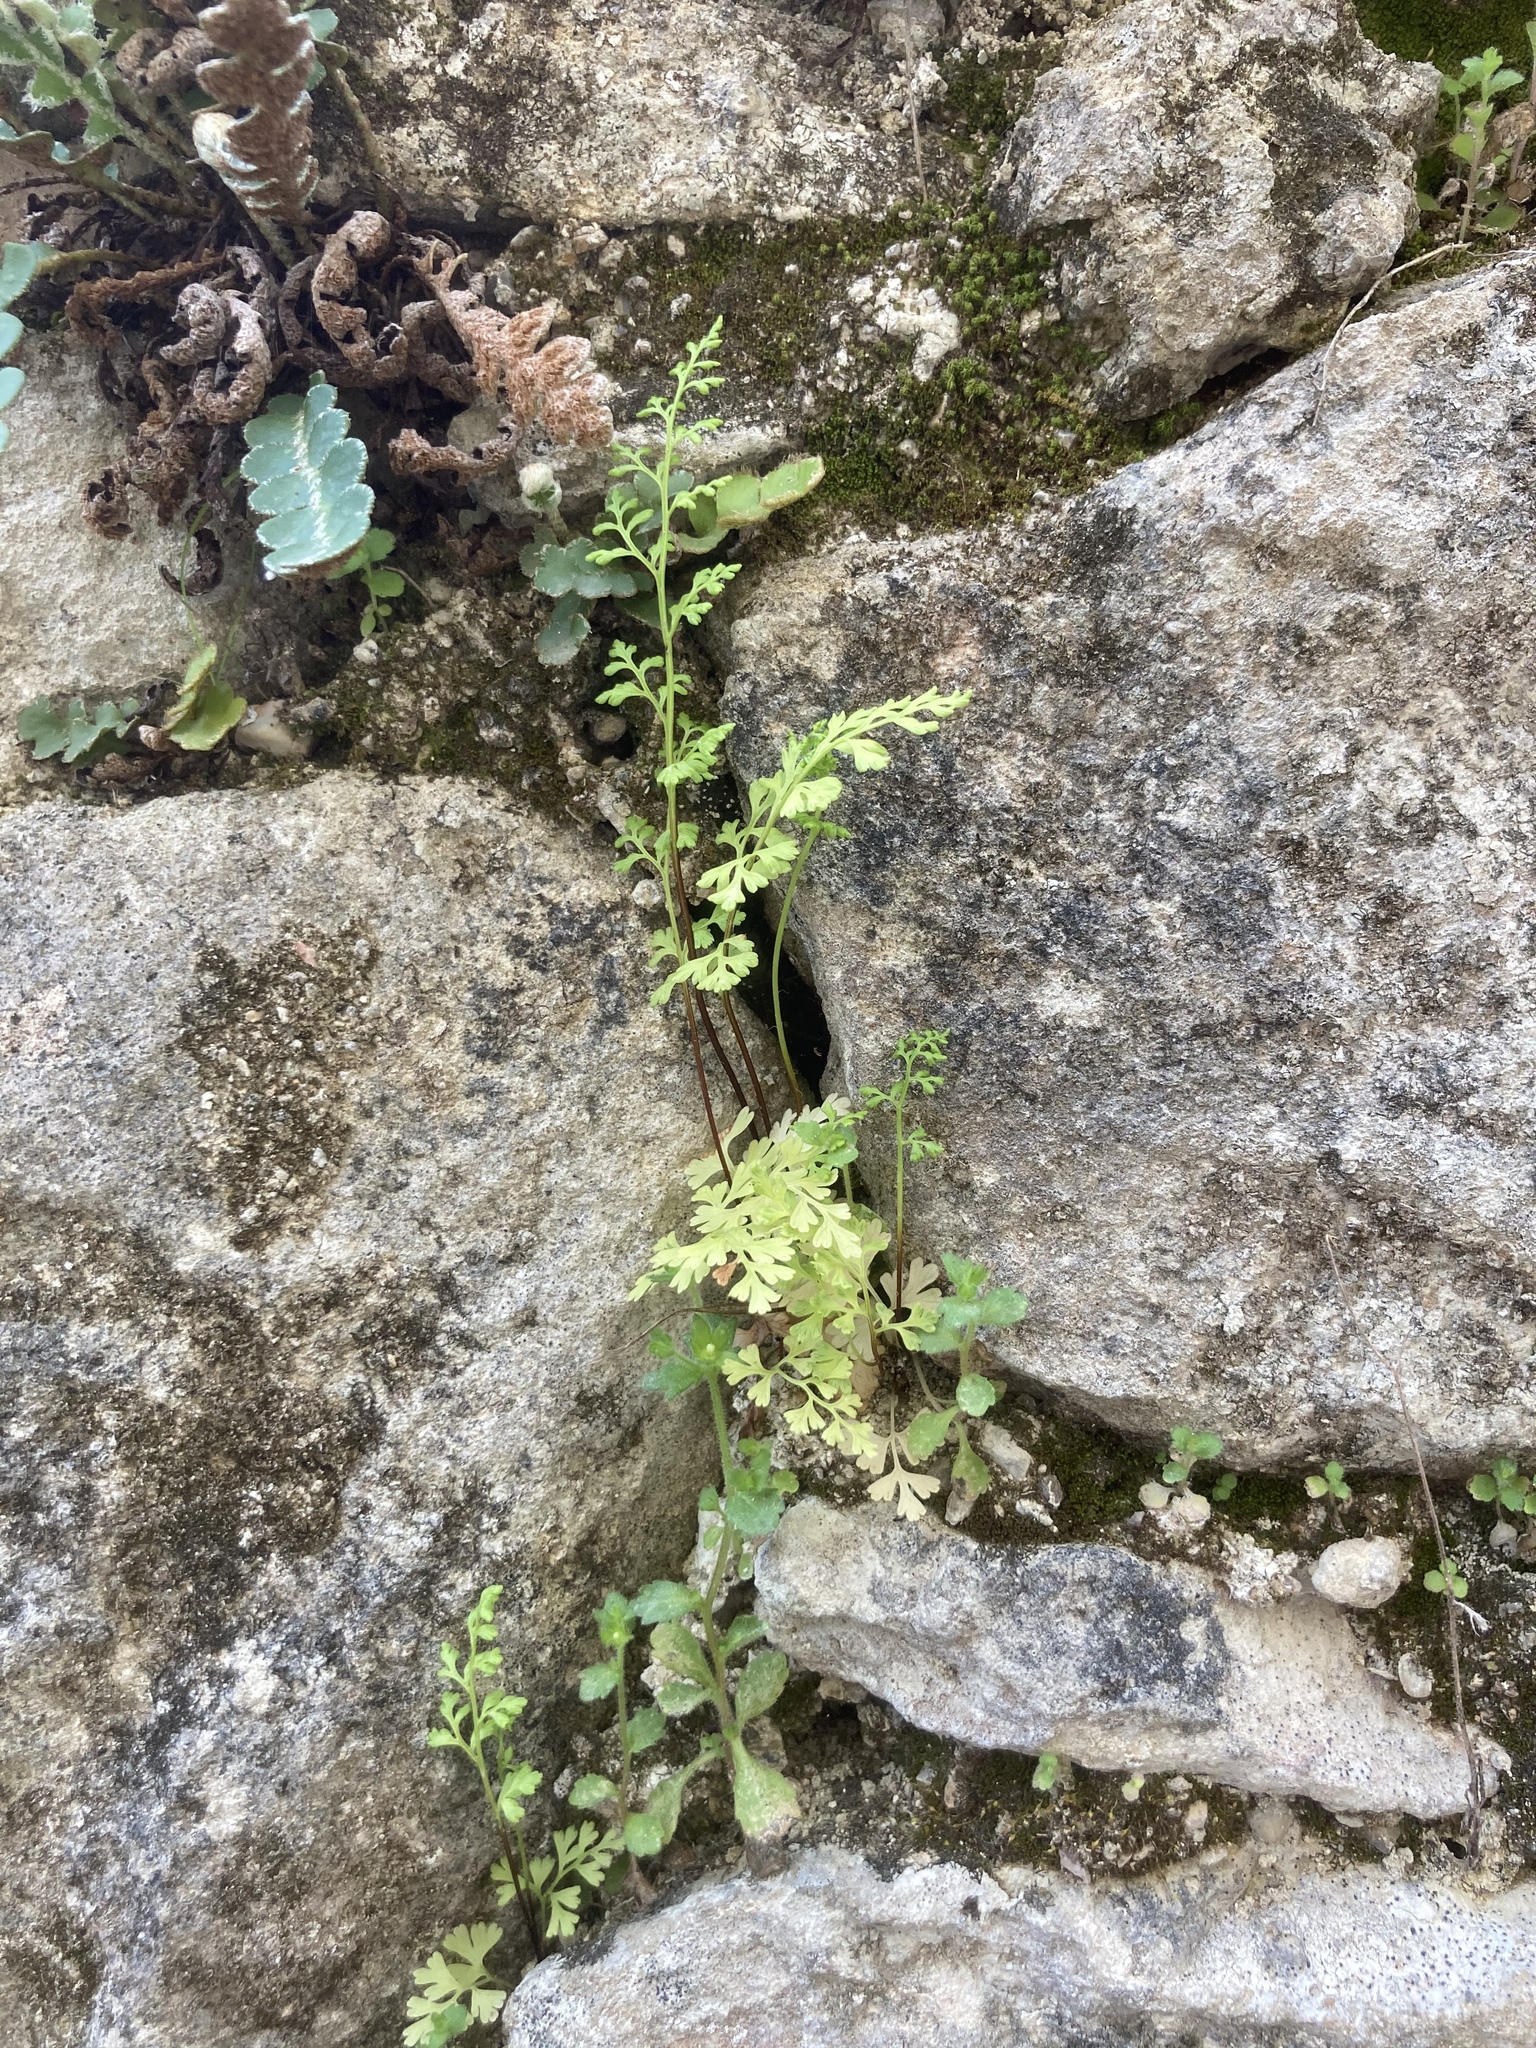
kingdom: Plantae
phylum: Tracheophyta
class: Polypodiopsida
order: Polypodiales
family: Pteridaceae
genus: Anogramma
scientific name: Anogramma leptophylla
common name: Jersey fern
